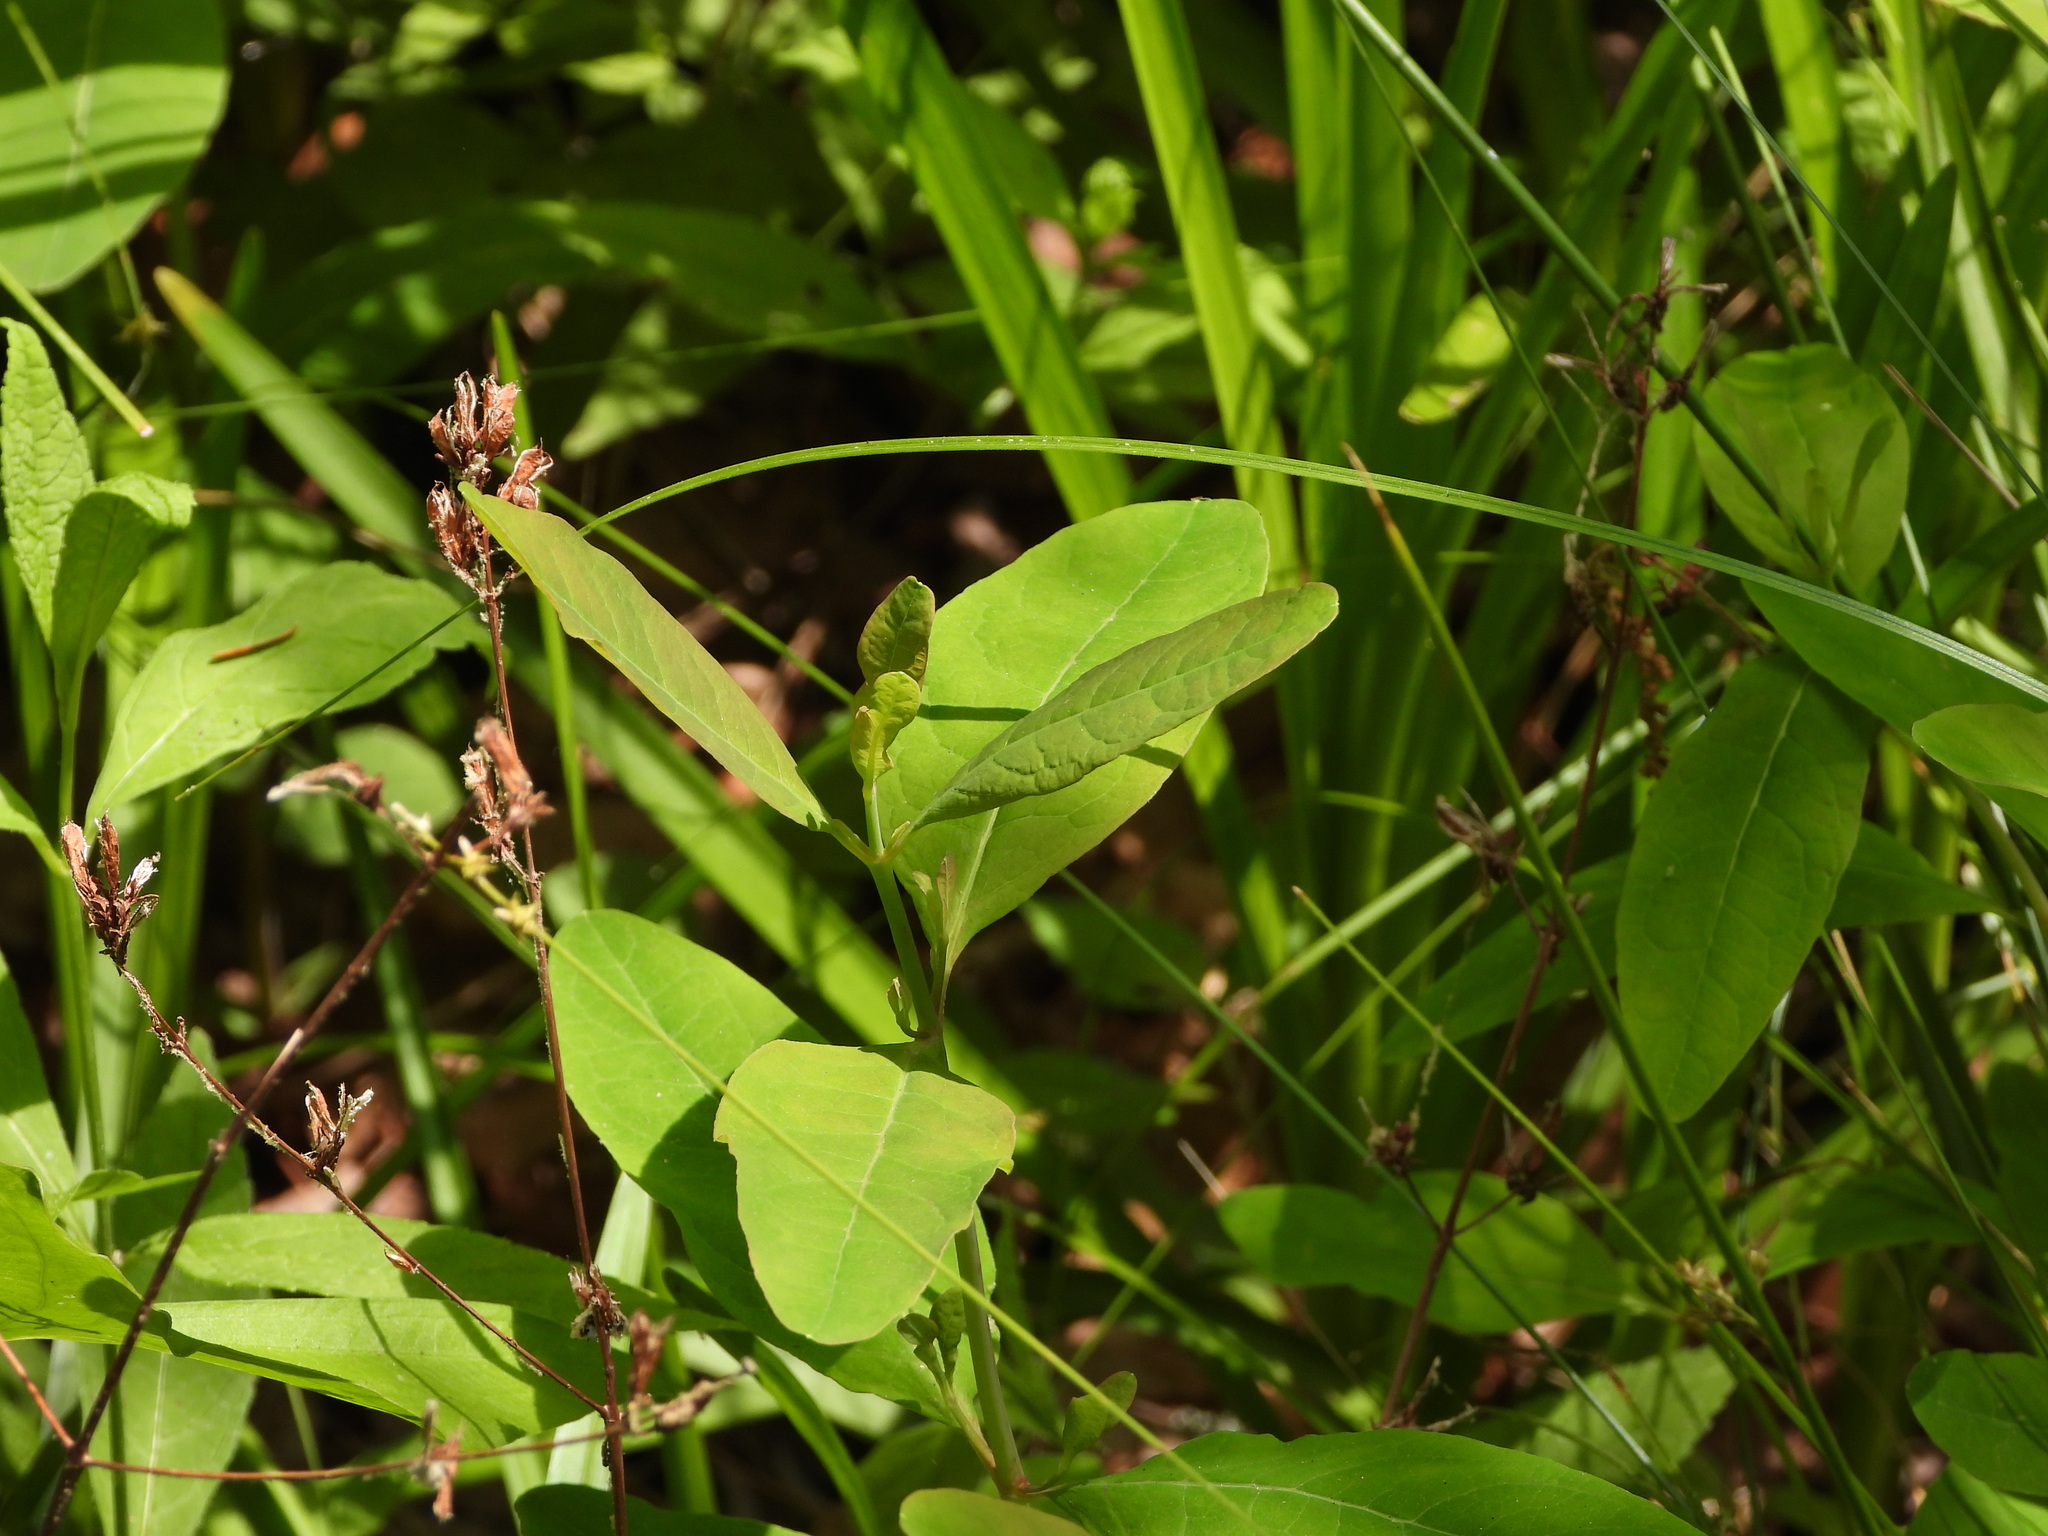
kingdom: Plantae
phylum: Tracheophyta
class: Magnoliopsida
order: Malpighiales
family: Hypericaceae
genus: Triadenum
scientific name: Triadenum walteri
